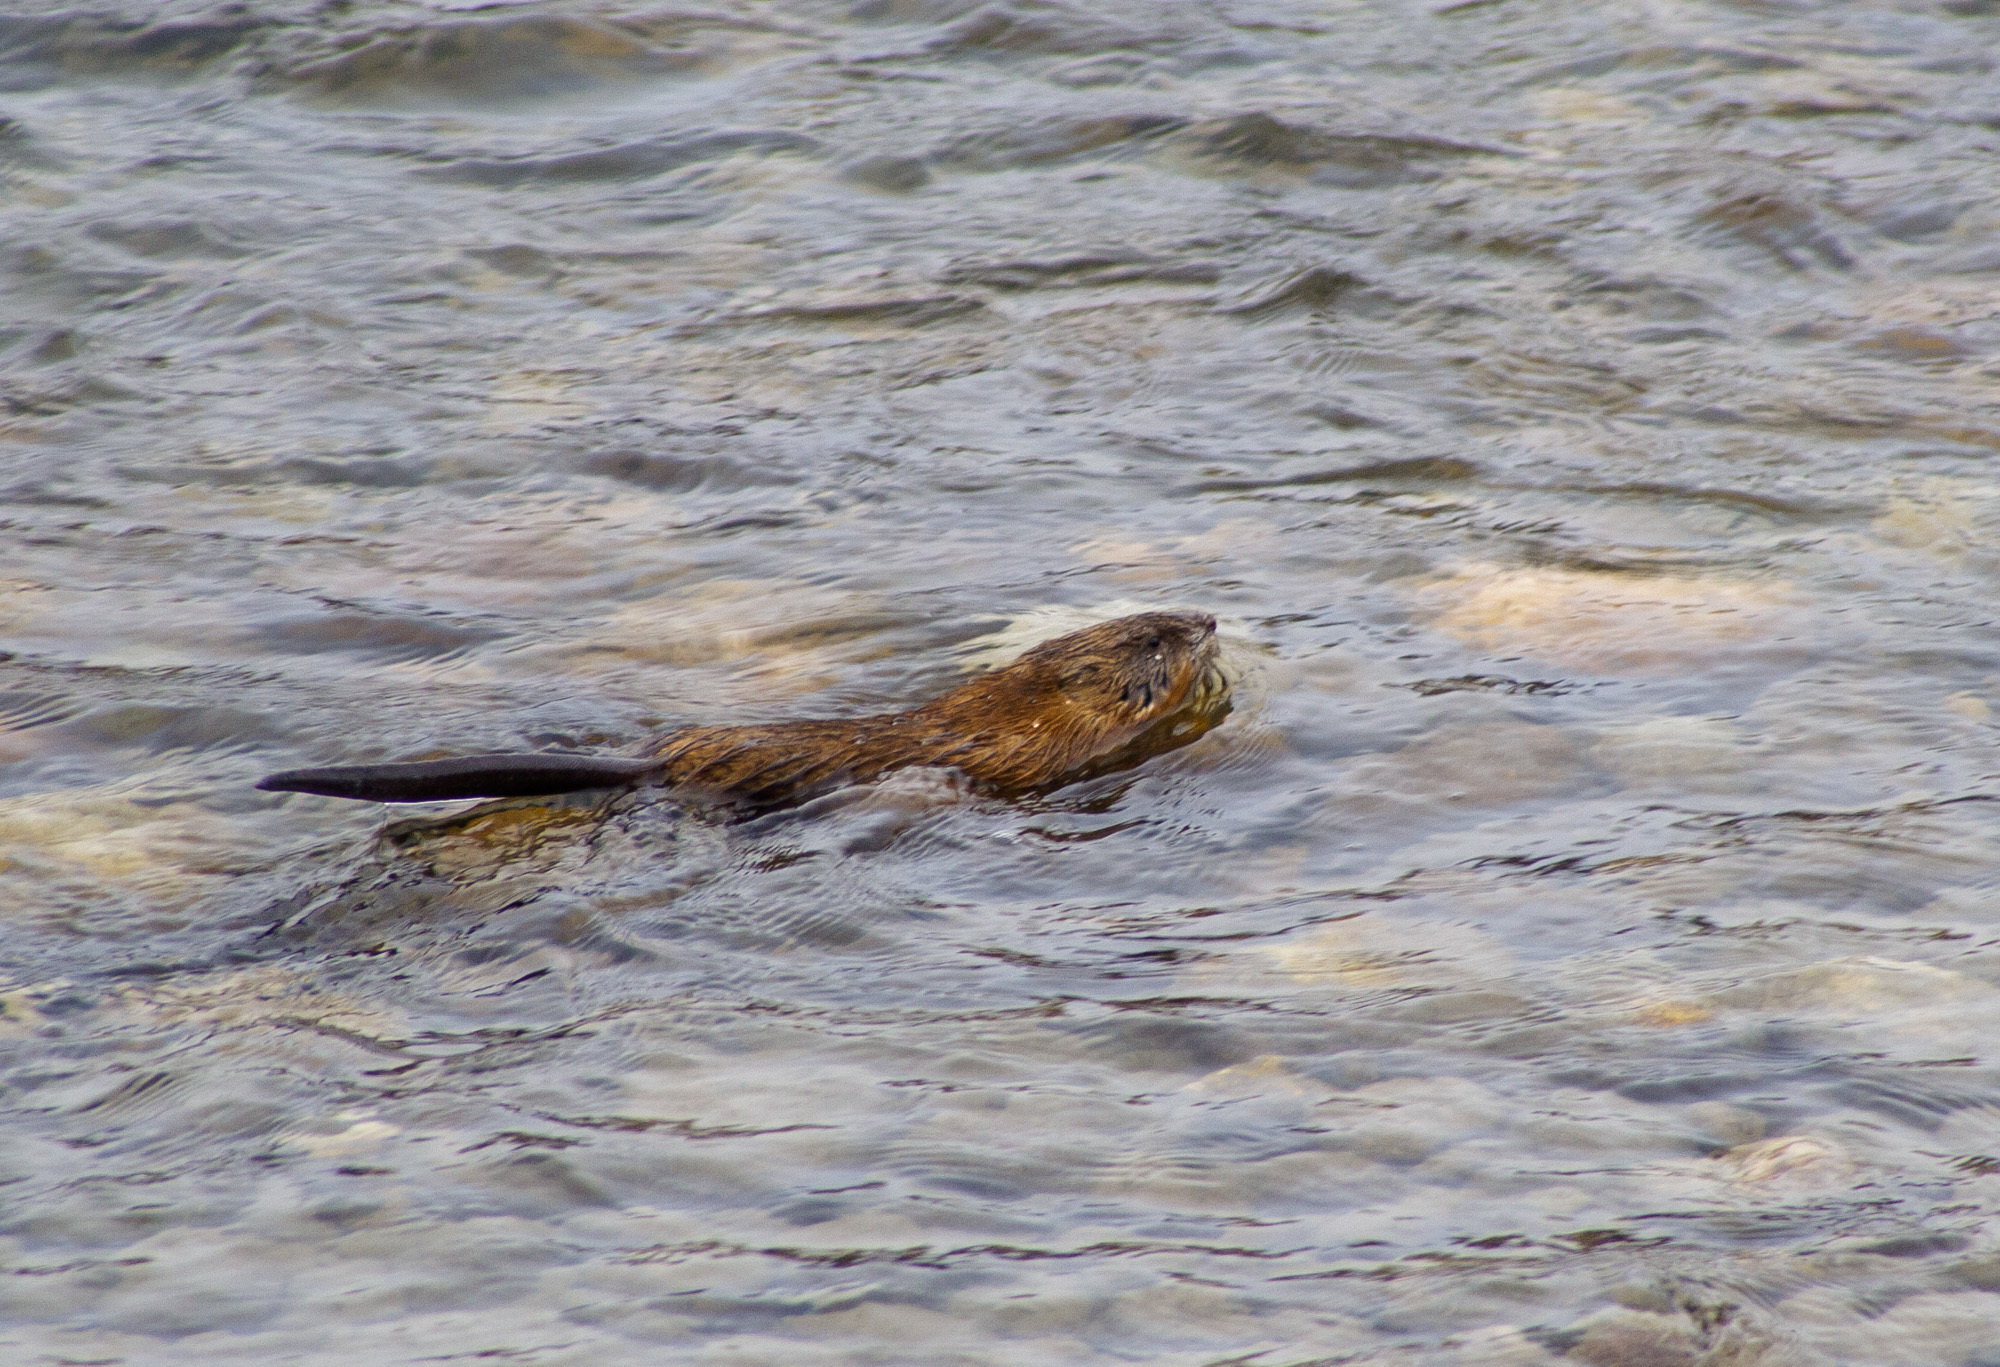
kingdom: Animalia
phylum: Chordata
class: Mammalia
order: Rodentia
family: Cricetidae
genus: Ondatra
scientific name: Ondatra zibethicus
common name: Muskrat
